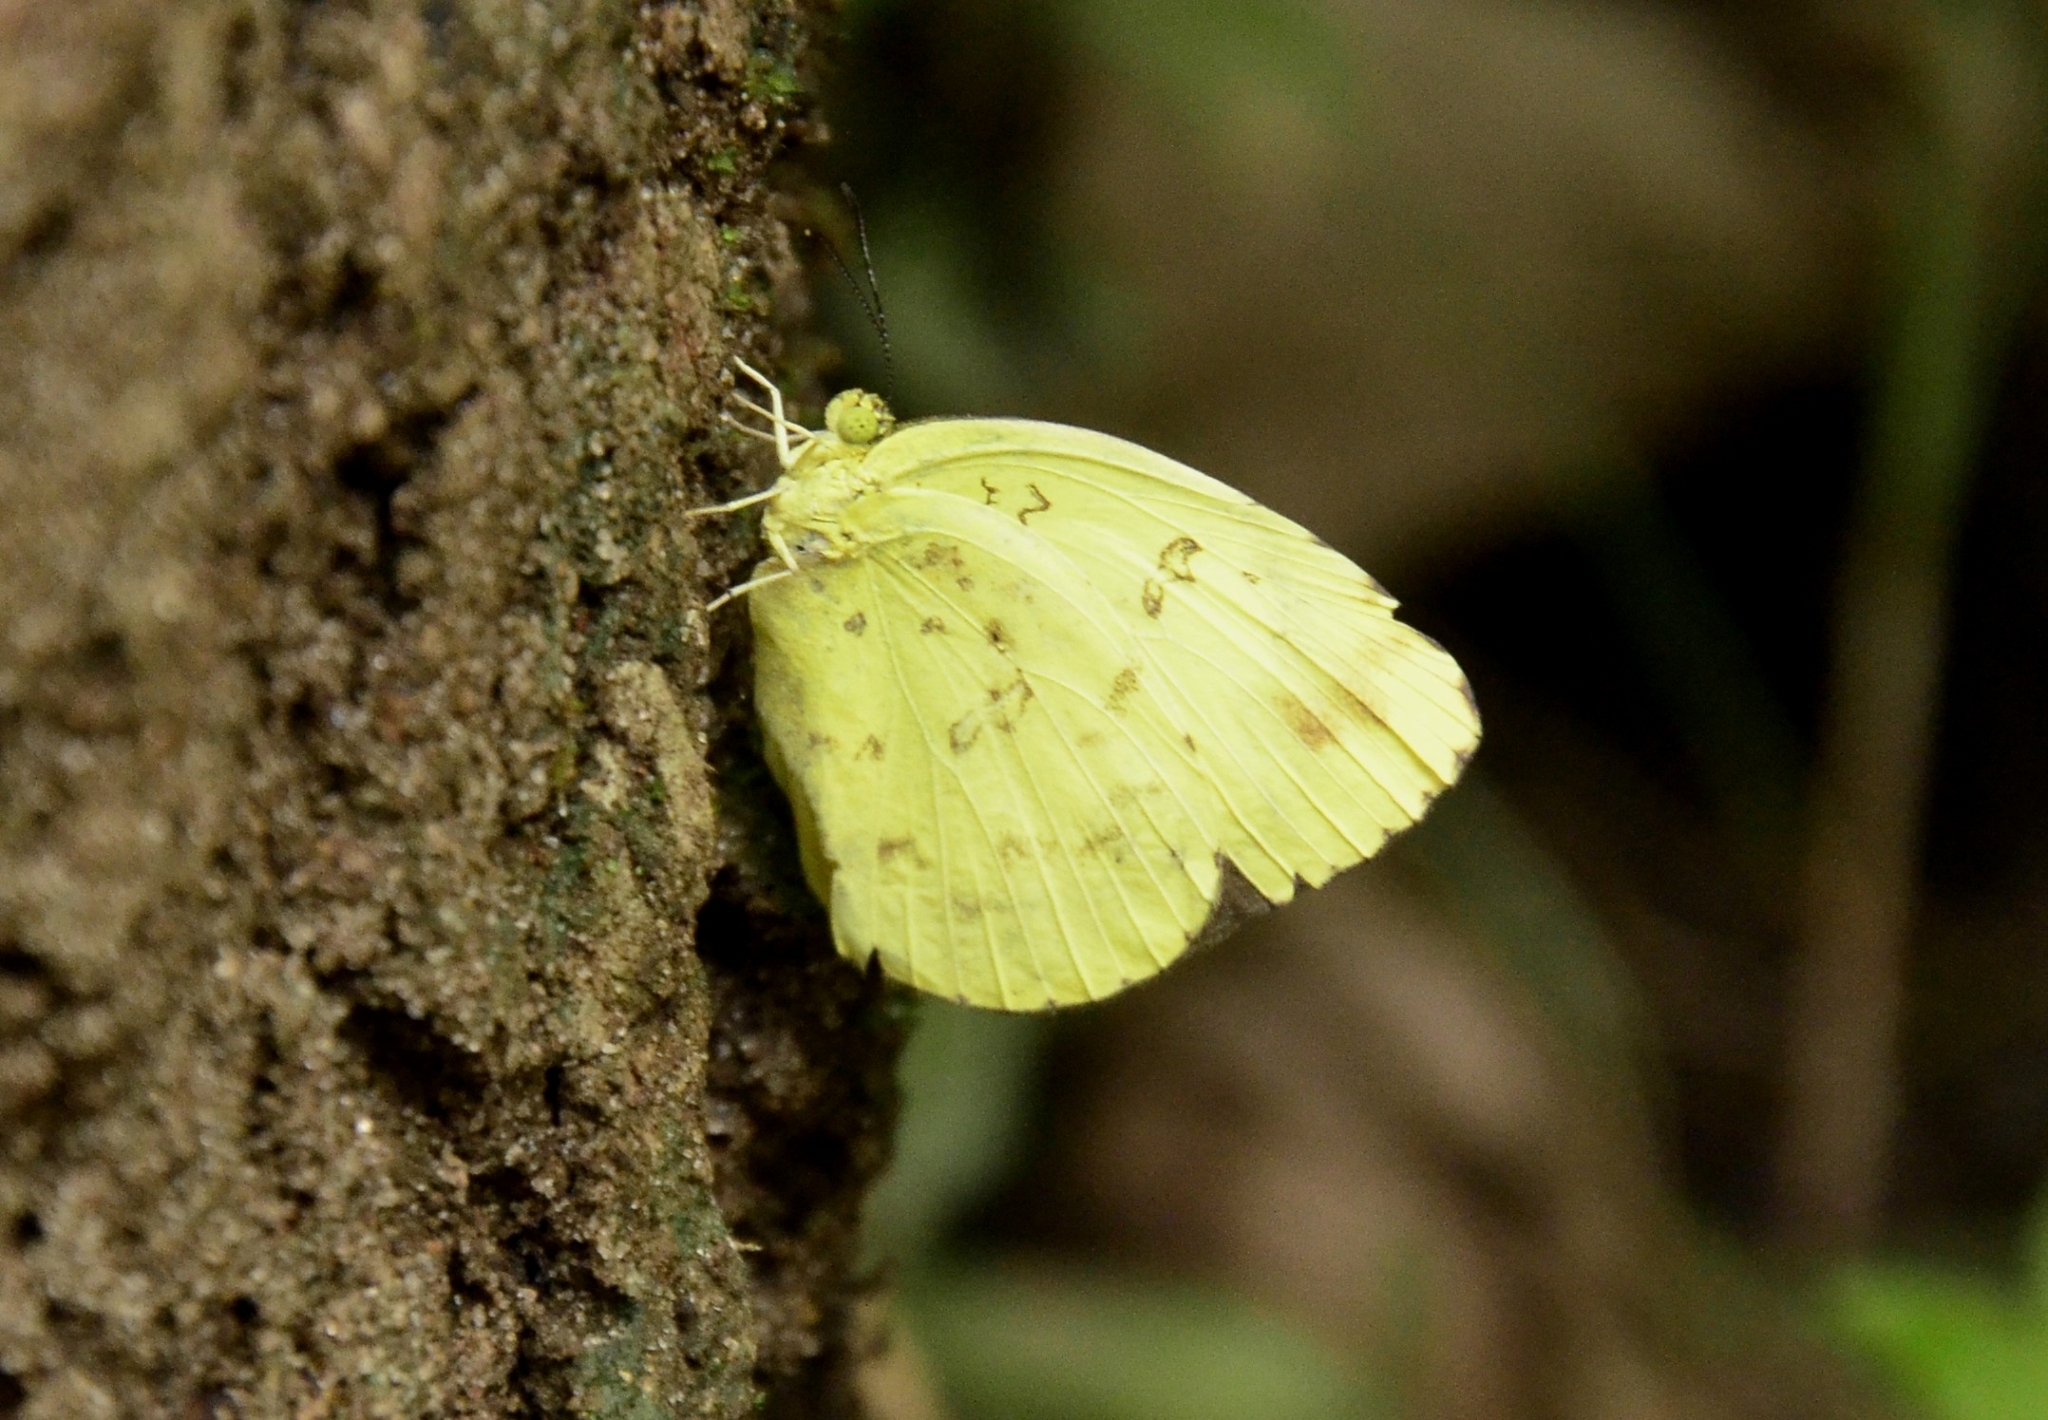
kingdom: Animalia
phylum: Arthropoda
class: Insecta
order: Lepidoptera
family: Pieridae
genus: Eurema
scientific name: Eurema hecabe
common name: Pale grass yellow
